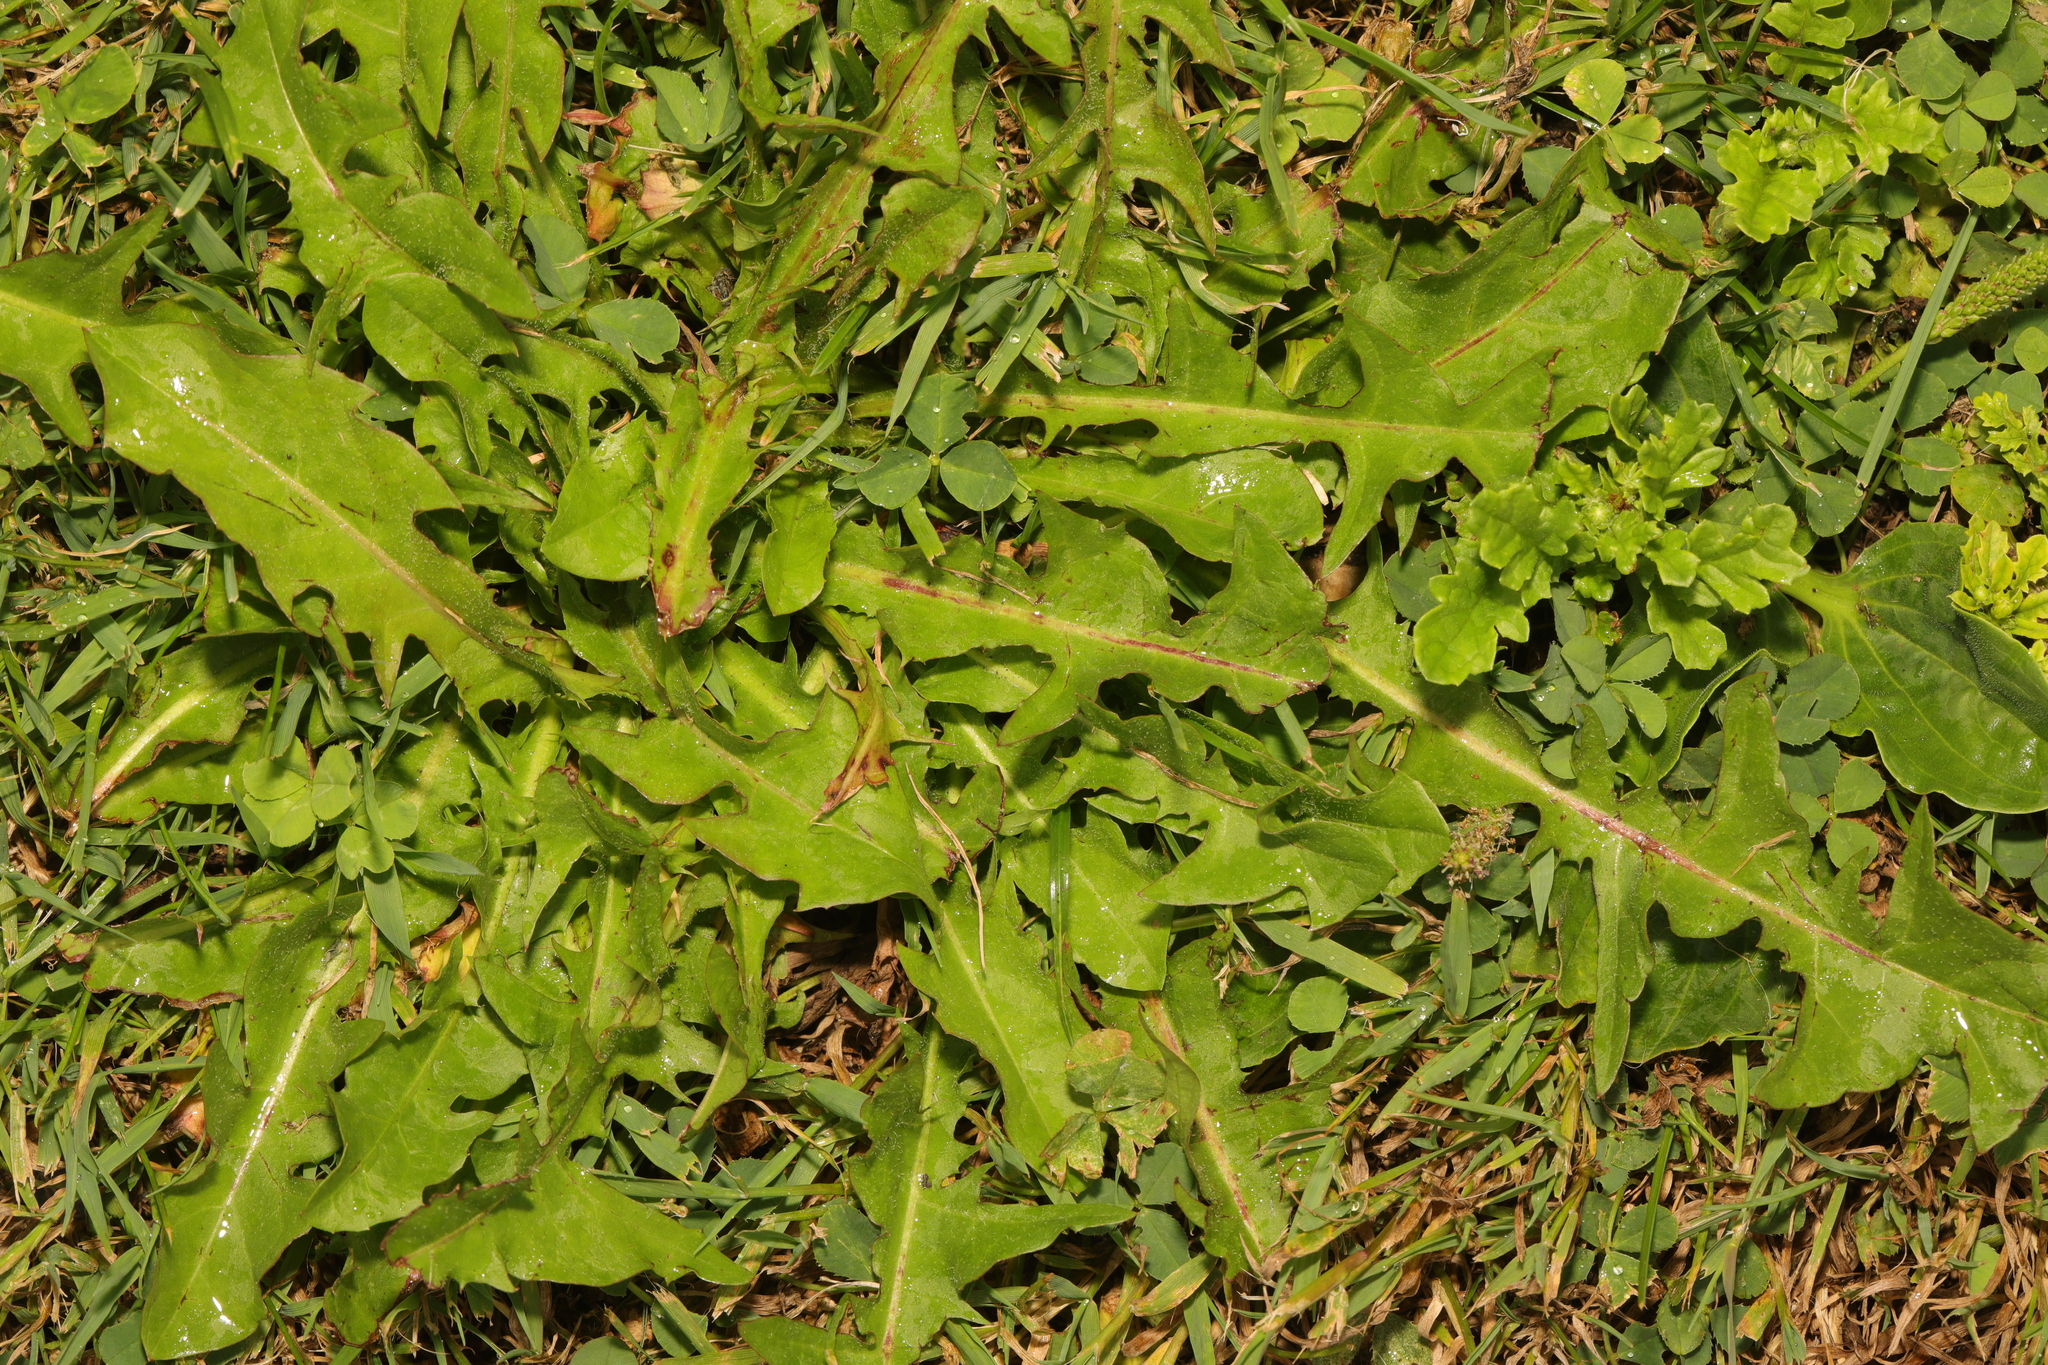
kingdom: Plantae
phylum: Tracheophyta
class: Magnoliopsida
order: Asterales
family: Asteraceae
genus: Taraxacum
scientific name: Taraxacum officinale
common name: Common dandelion
